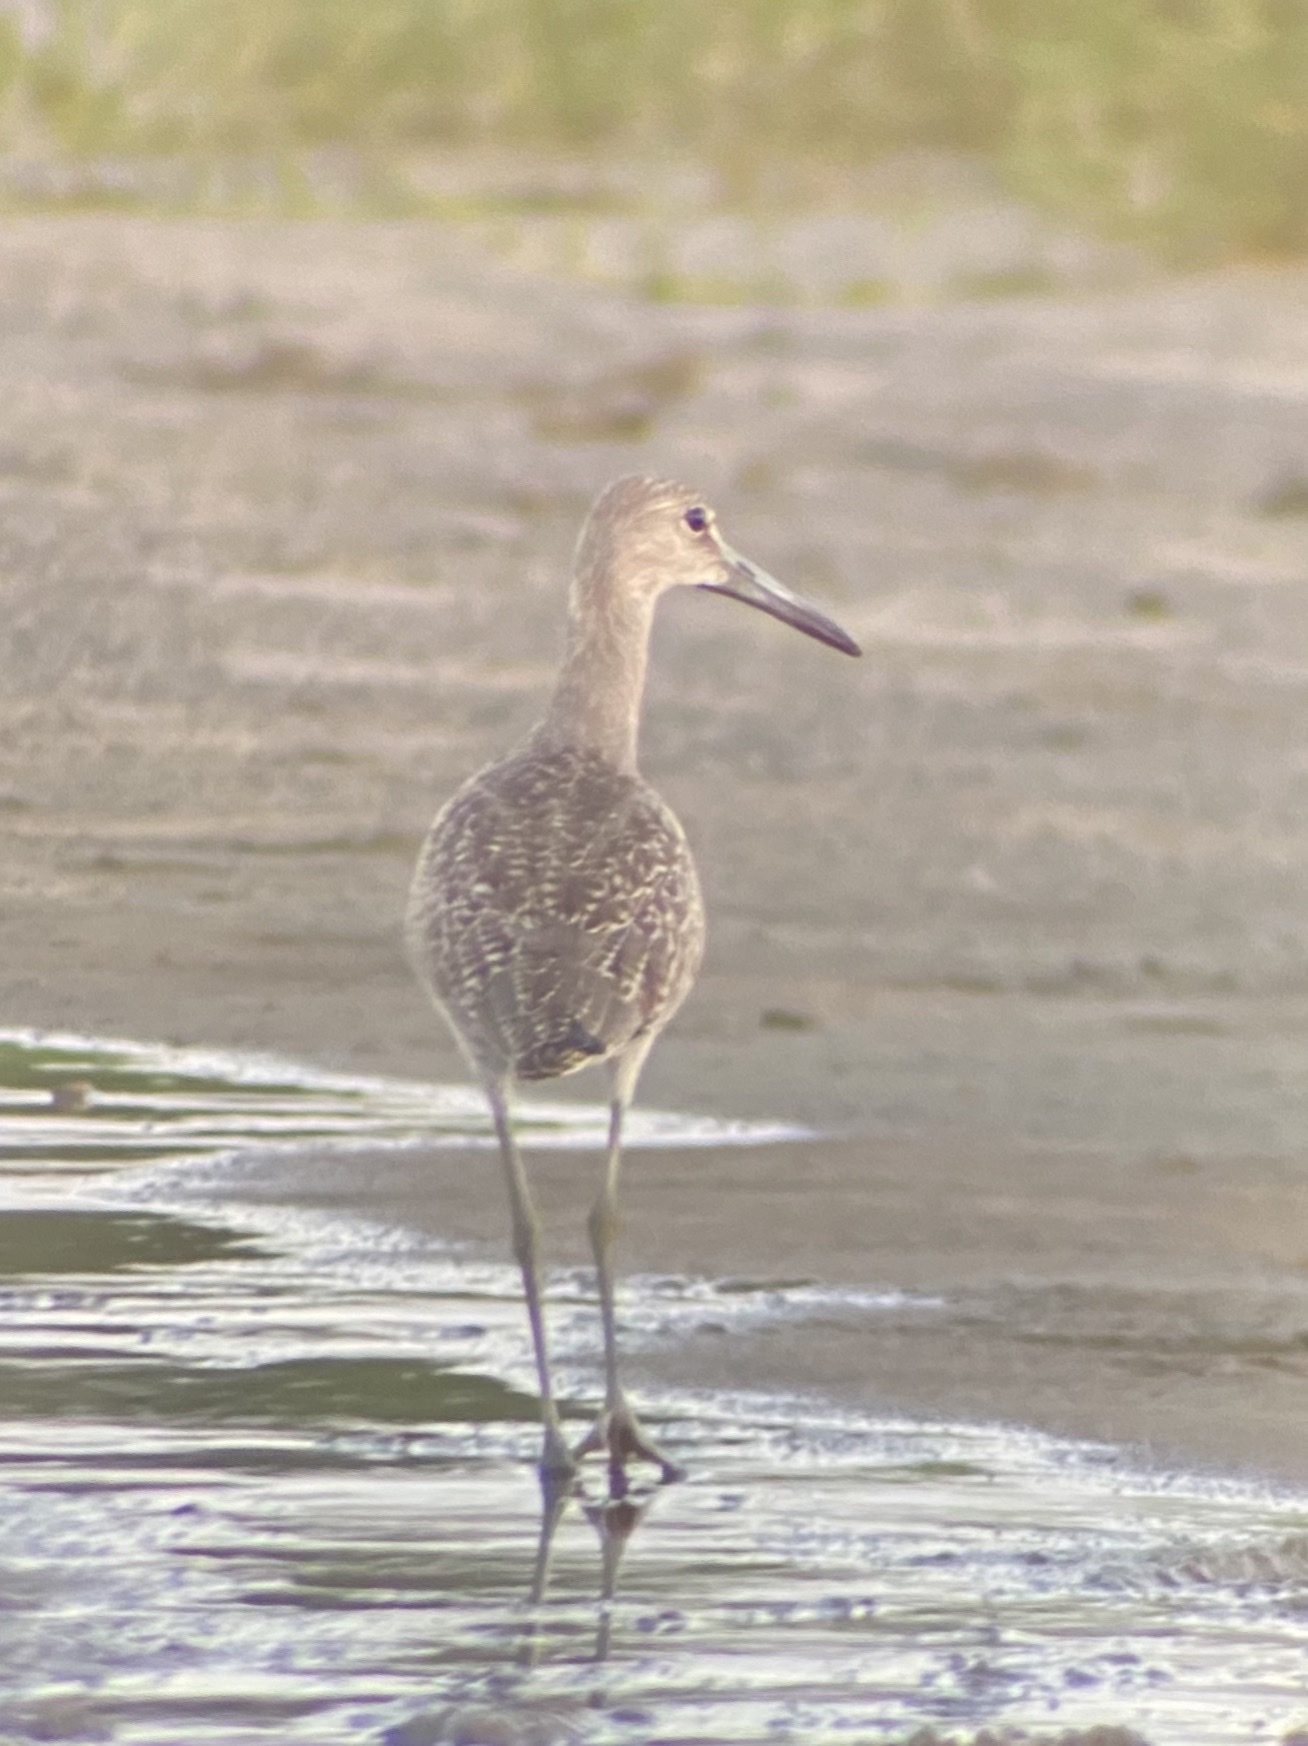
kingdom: Animalia
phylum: Chordata
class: Aves
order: Charadriiformes
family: Scolopacidae
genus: Tringa
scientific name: Tringa semipalmata
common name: Willet
